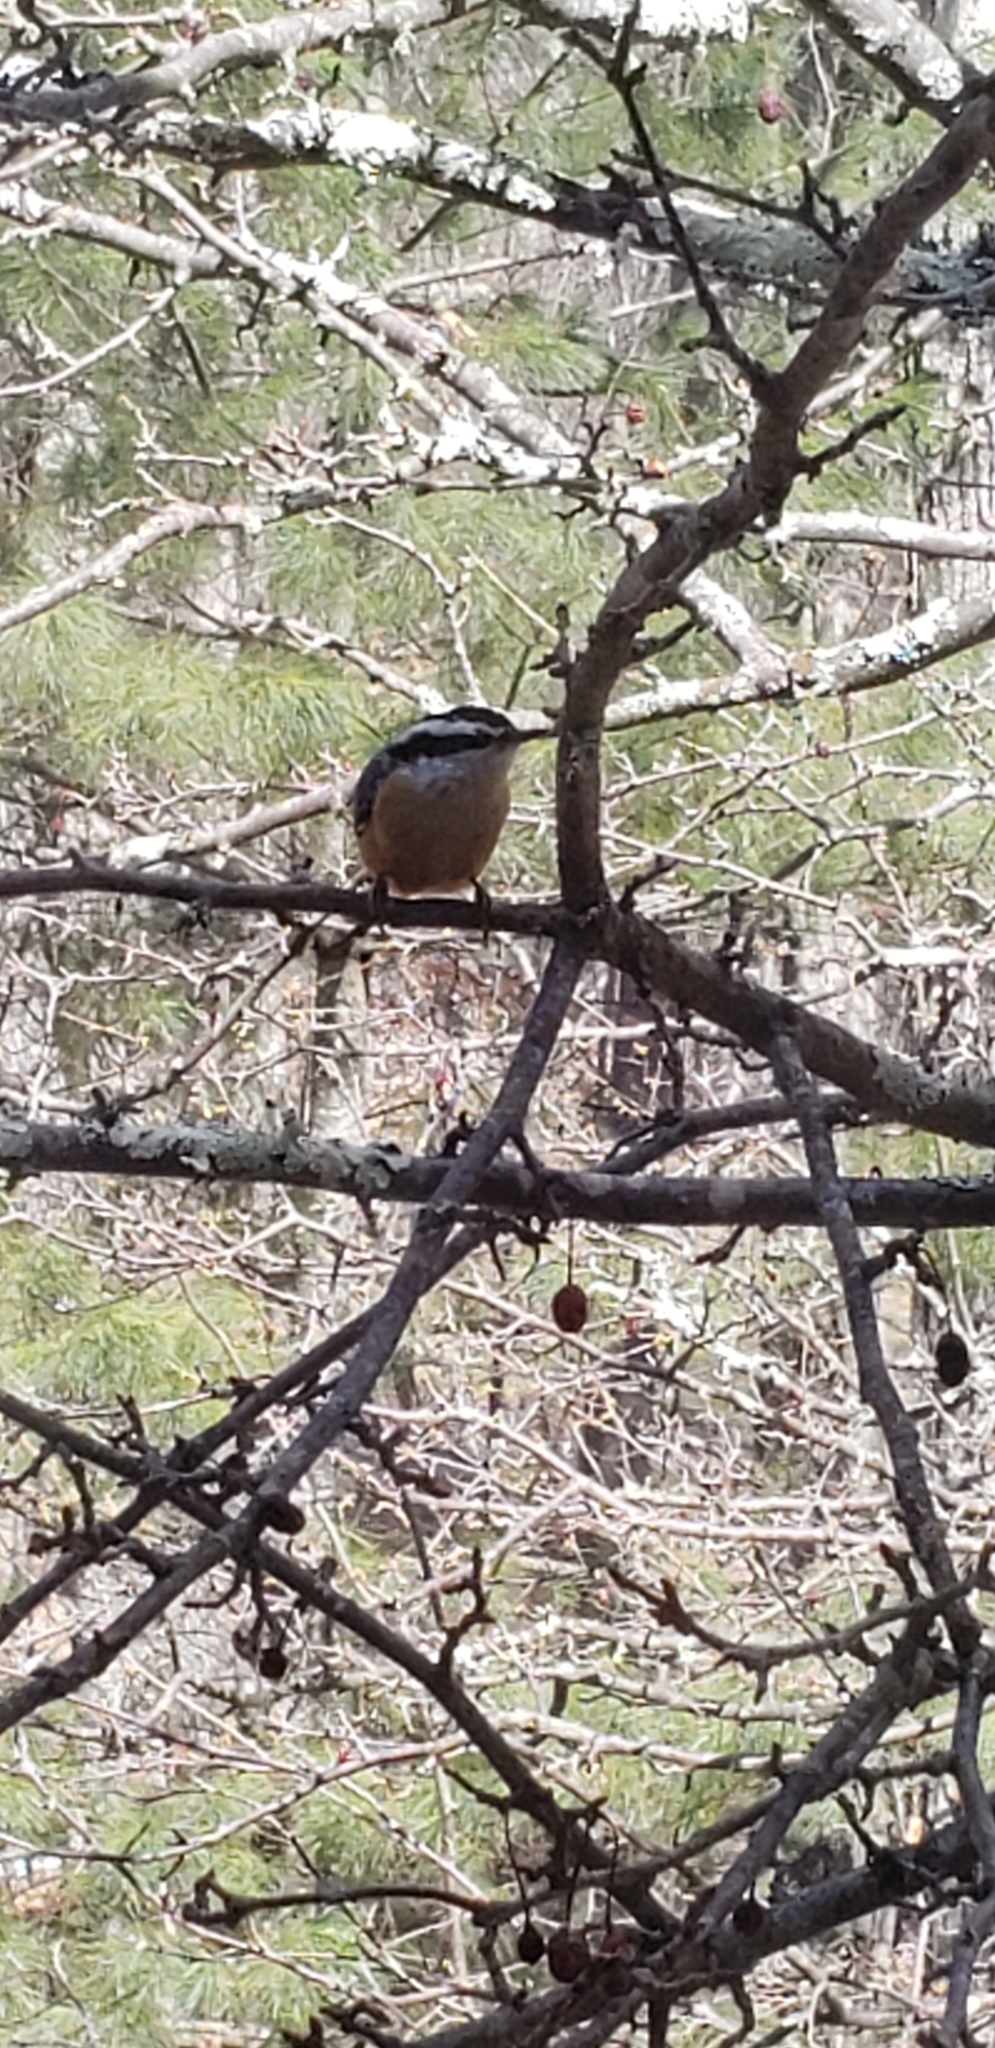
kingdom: Animalia
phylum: Chordata
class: Aves
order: Passeriformes
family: Sittidae
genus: Sitta
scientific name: Sitta canadensis
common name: Red-breasted nuthatch
